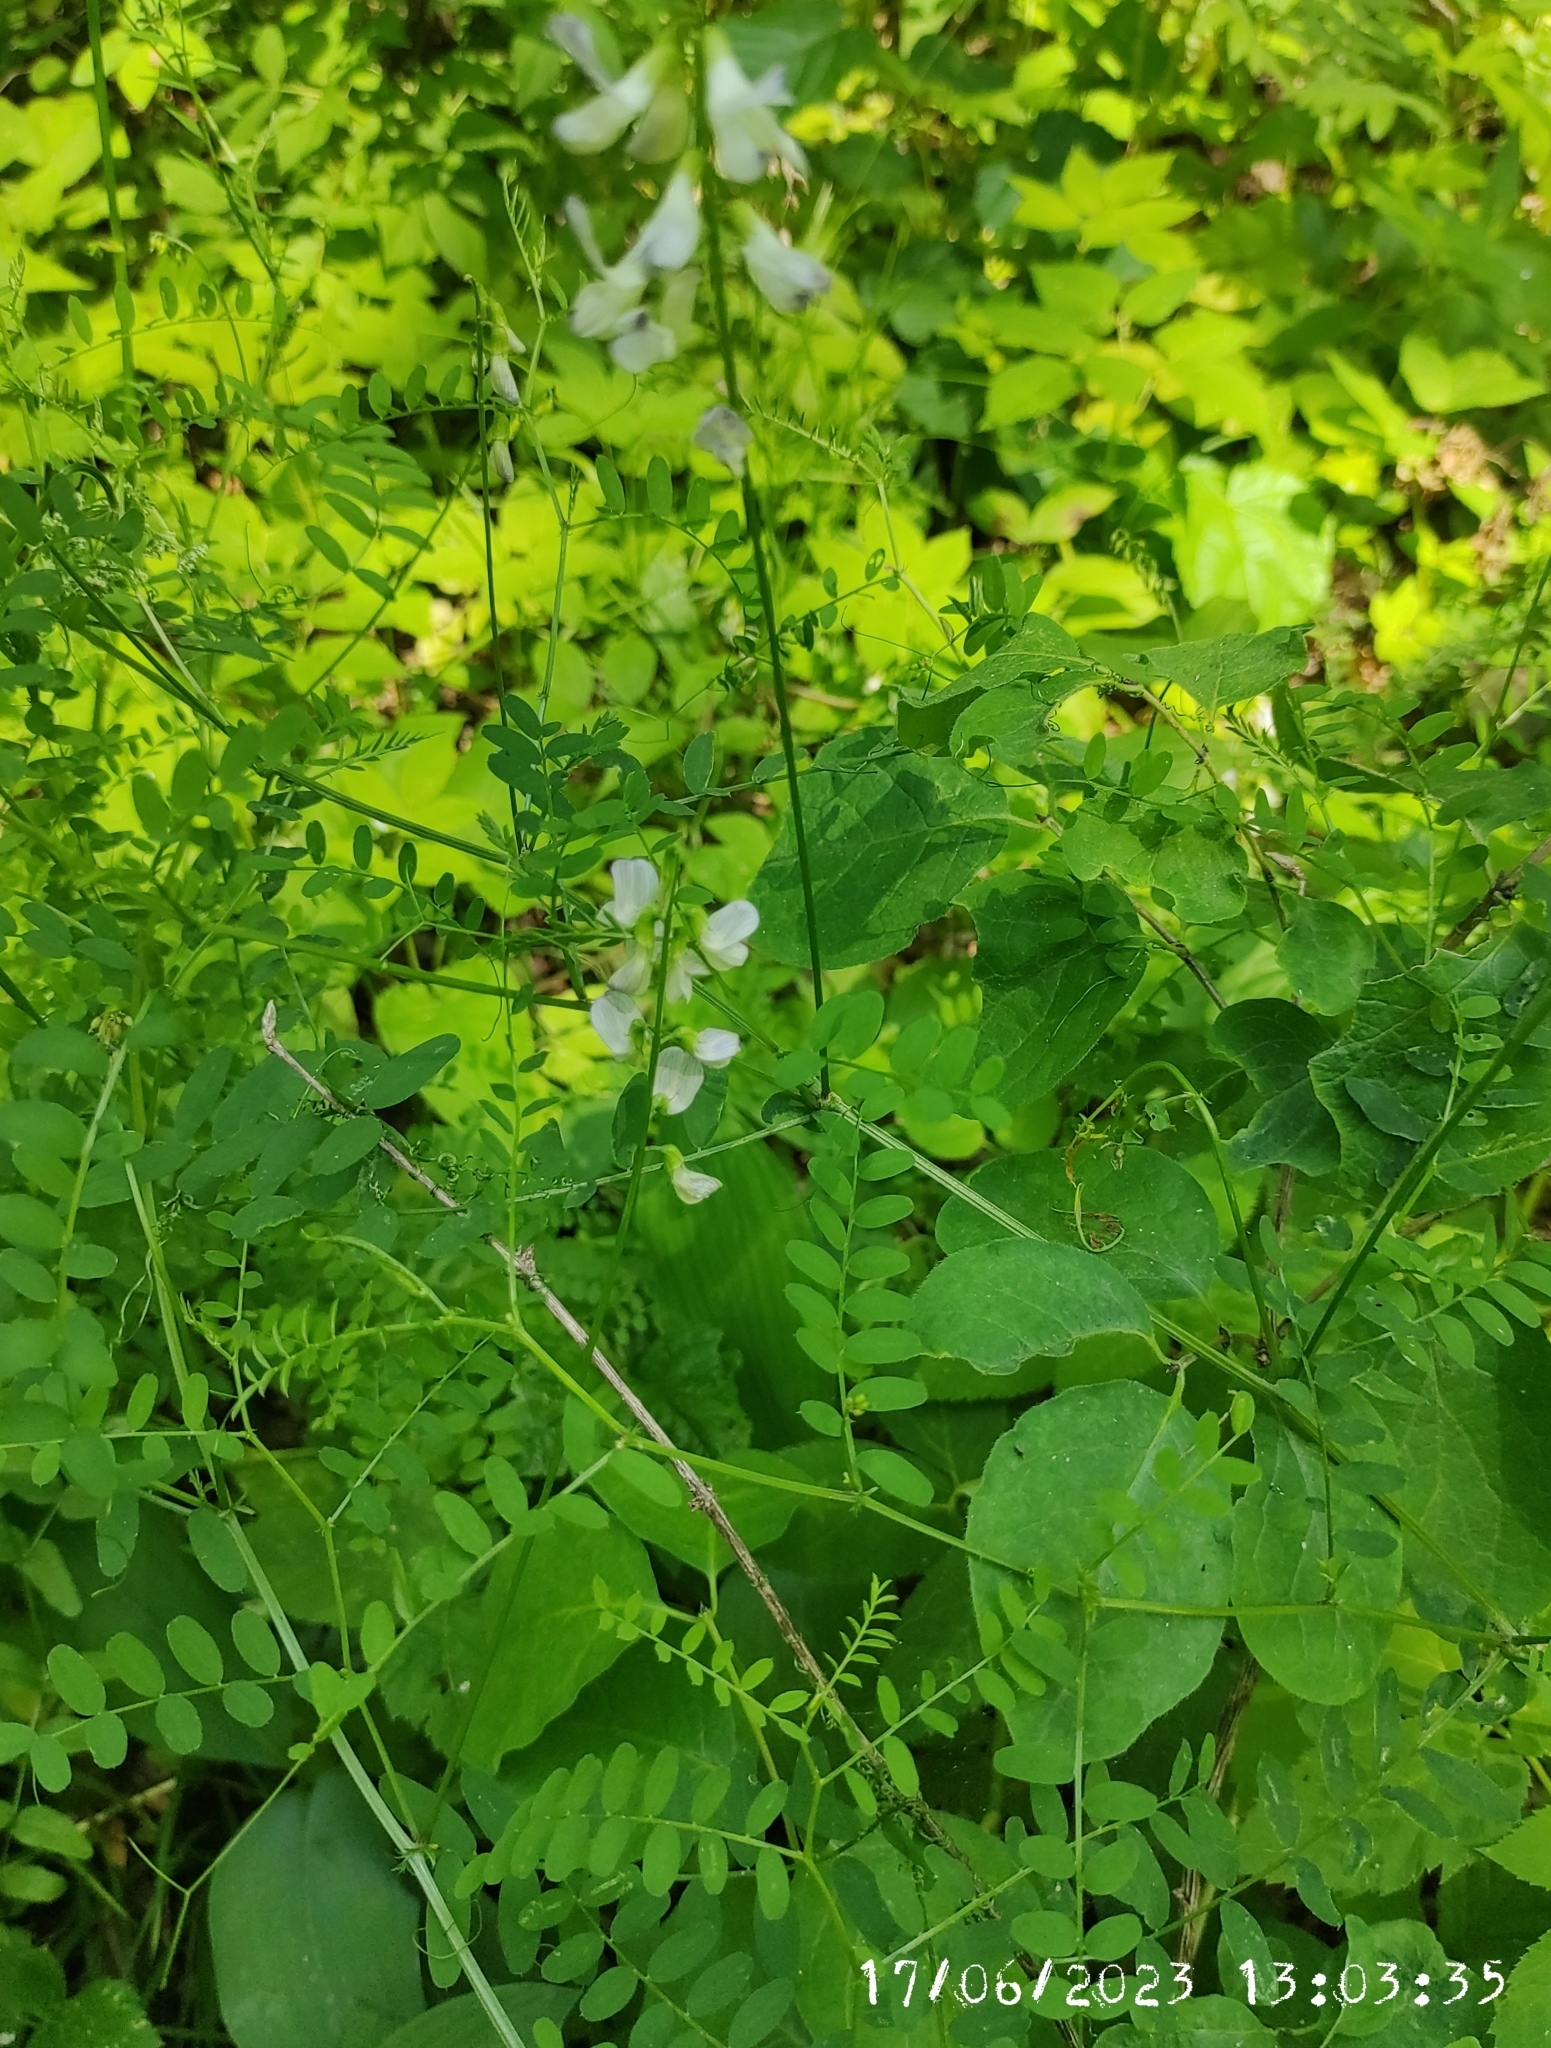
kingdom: Plantae
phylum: Tracheophyta
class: Magnoliopsida
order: Fabales
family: Fabaceae
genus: Vicia
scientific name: Vicia sylvatica
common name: Wood vetch
